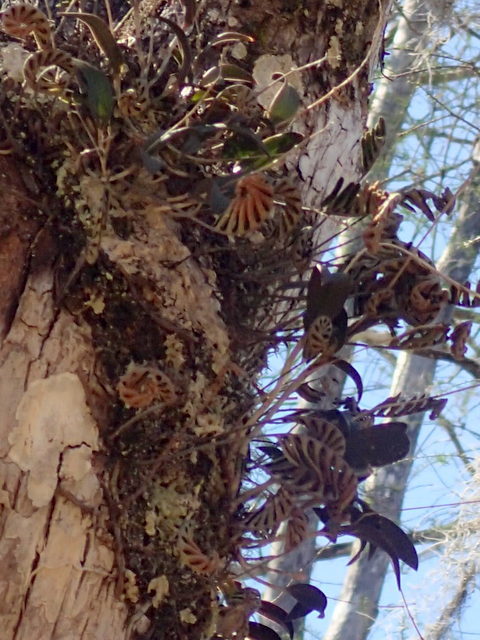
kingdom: Plantae
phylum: Tracheophyta
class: Liliopsida
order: Asparagales
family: Orchidaceae
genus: Epidendrum
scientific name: Epidendrum conopseum
